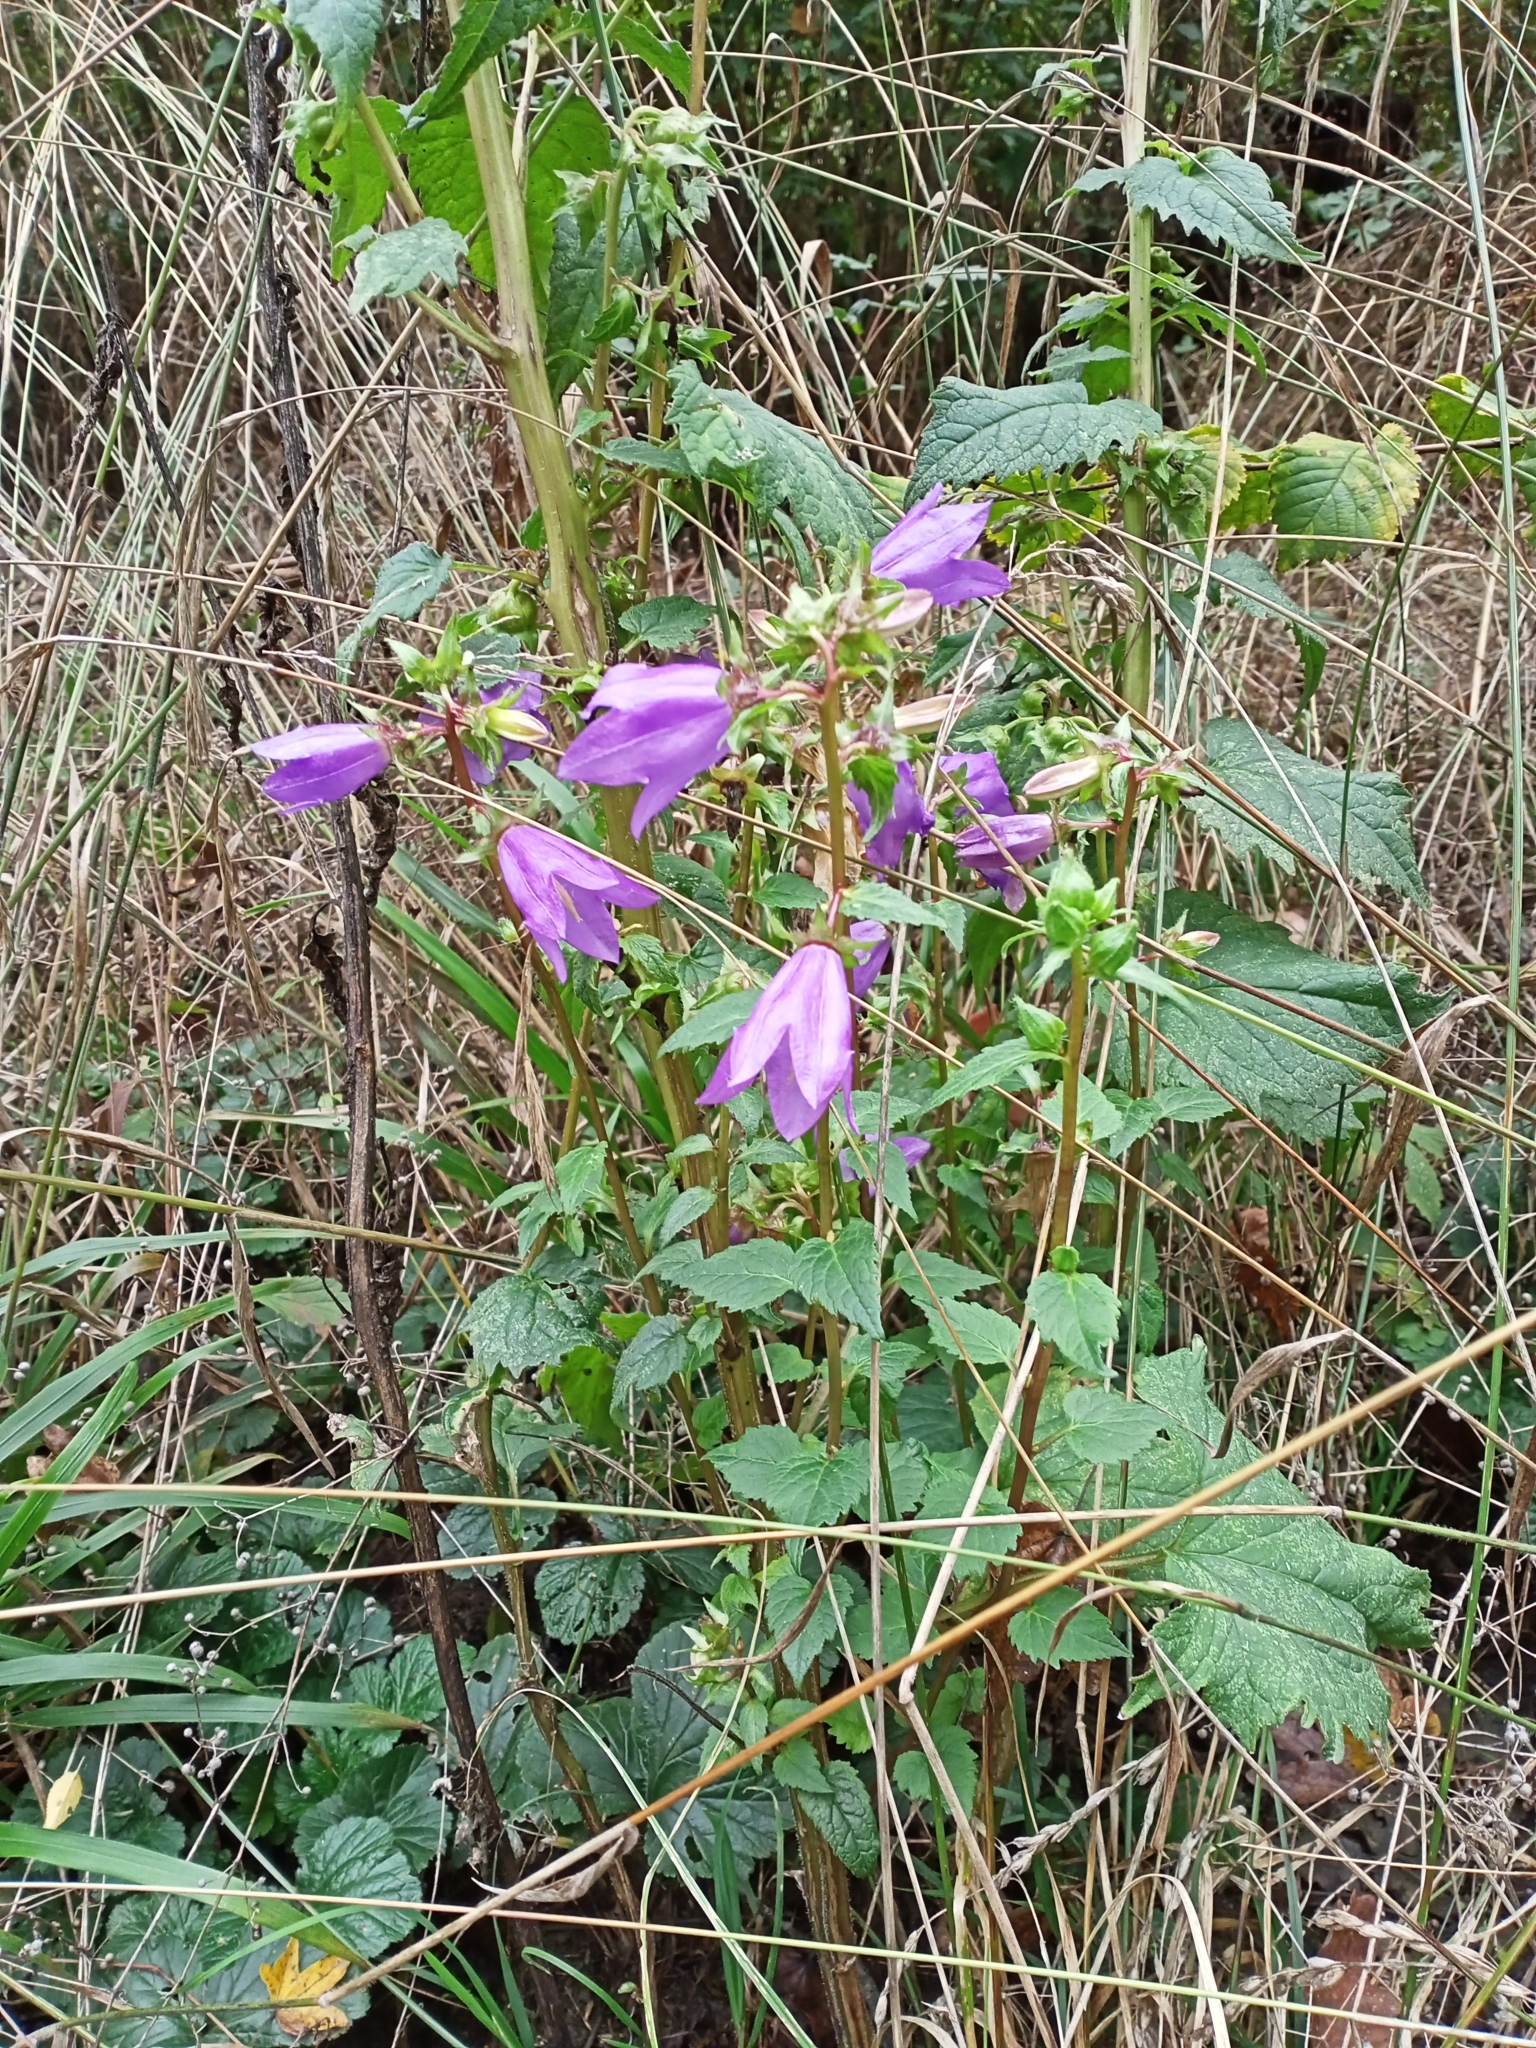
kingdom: Plantae
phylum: Tracheophyta
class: Magnoliopsida
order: Asterales
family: Campanulaceae
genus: Campanula
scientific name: Campanula trachelium
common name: Nettle-leaved bellflower
